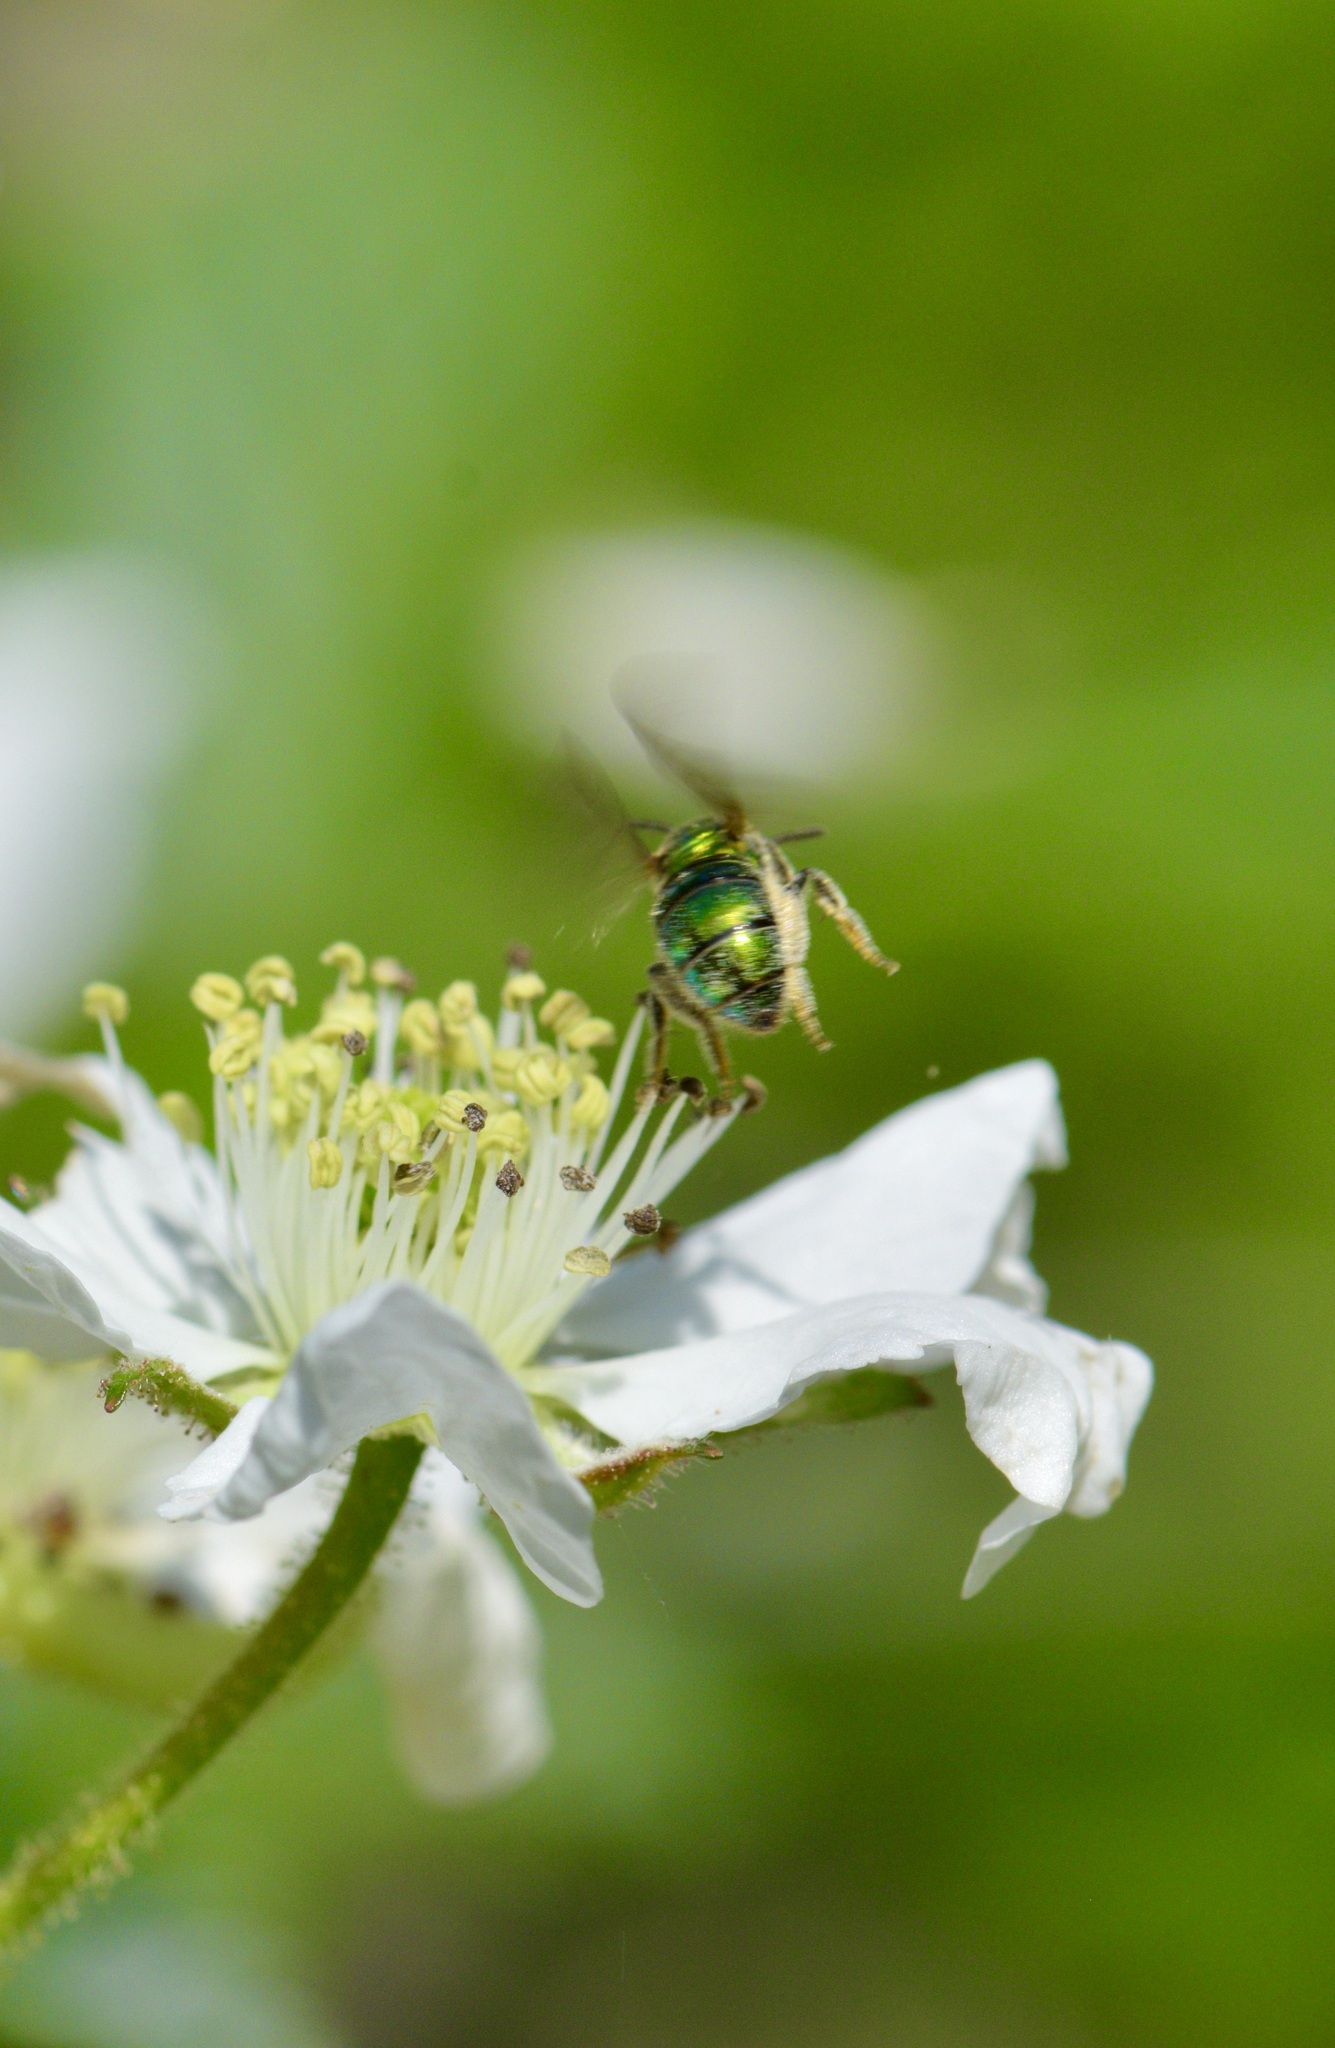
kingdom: Animalia
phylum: Arthropoda
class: Insecta
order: Hymenoptera
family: Halictidae
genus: Augochlora
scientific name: Augochlora pura
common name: Pure green sweat bee
